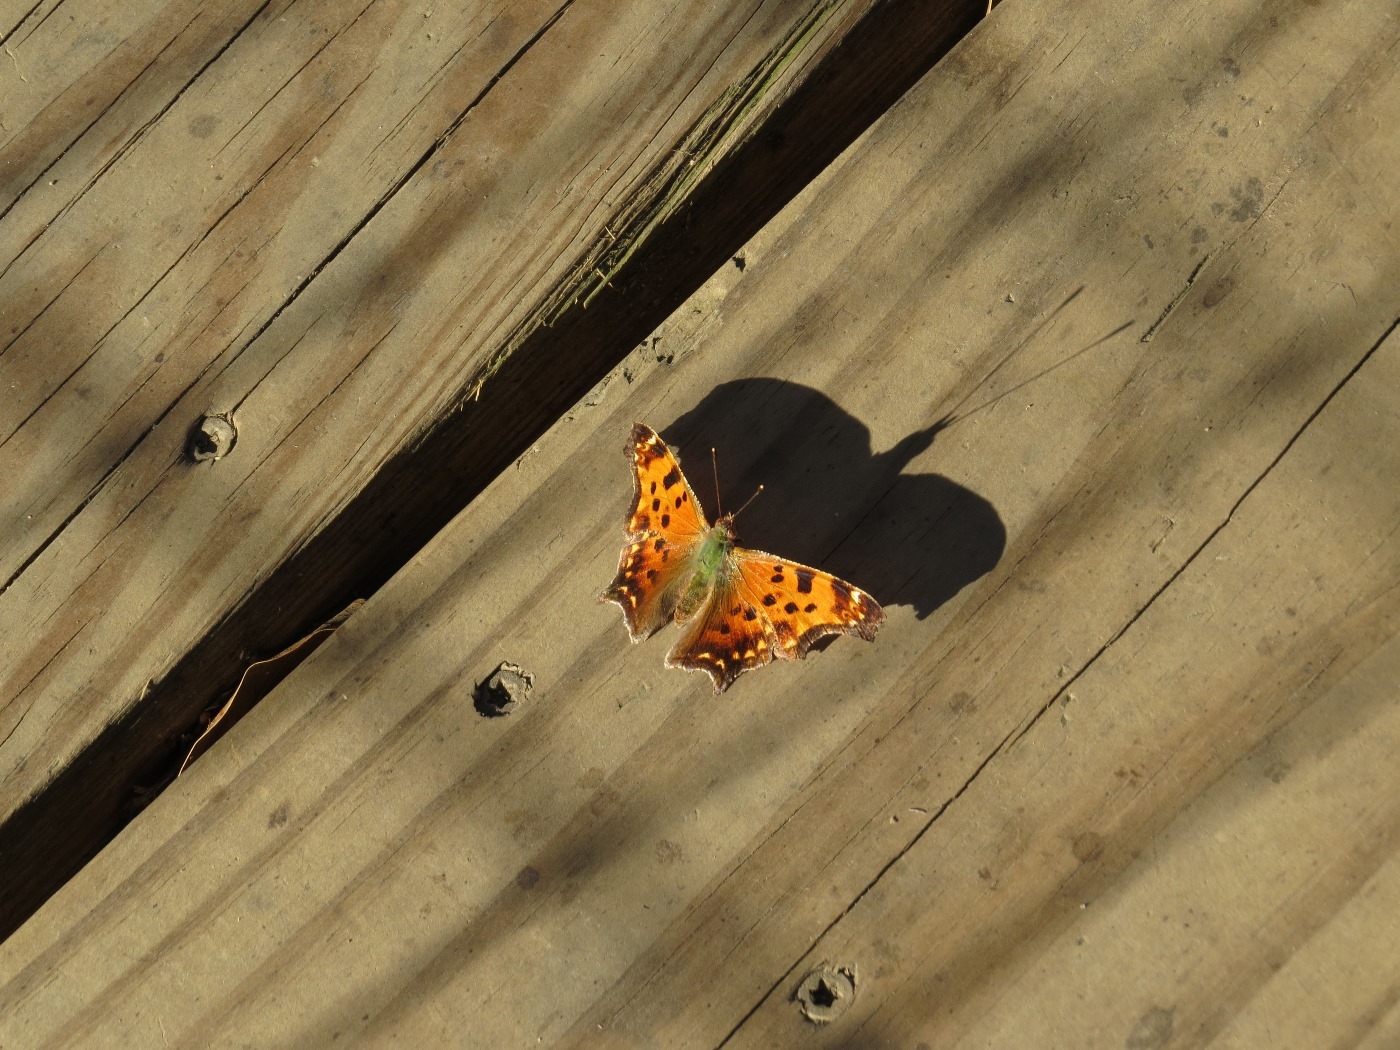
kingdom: Animalia
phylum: Arthropoda
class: Insecta
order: Lepidoptera
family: Nymphalidae
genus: Polygonia
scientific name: Polygonia comma
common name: Eastern comma
